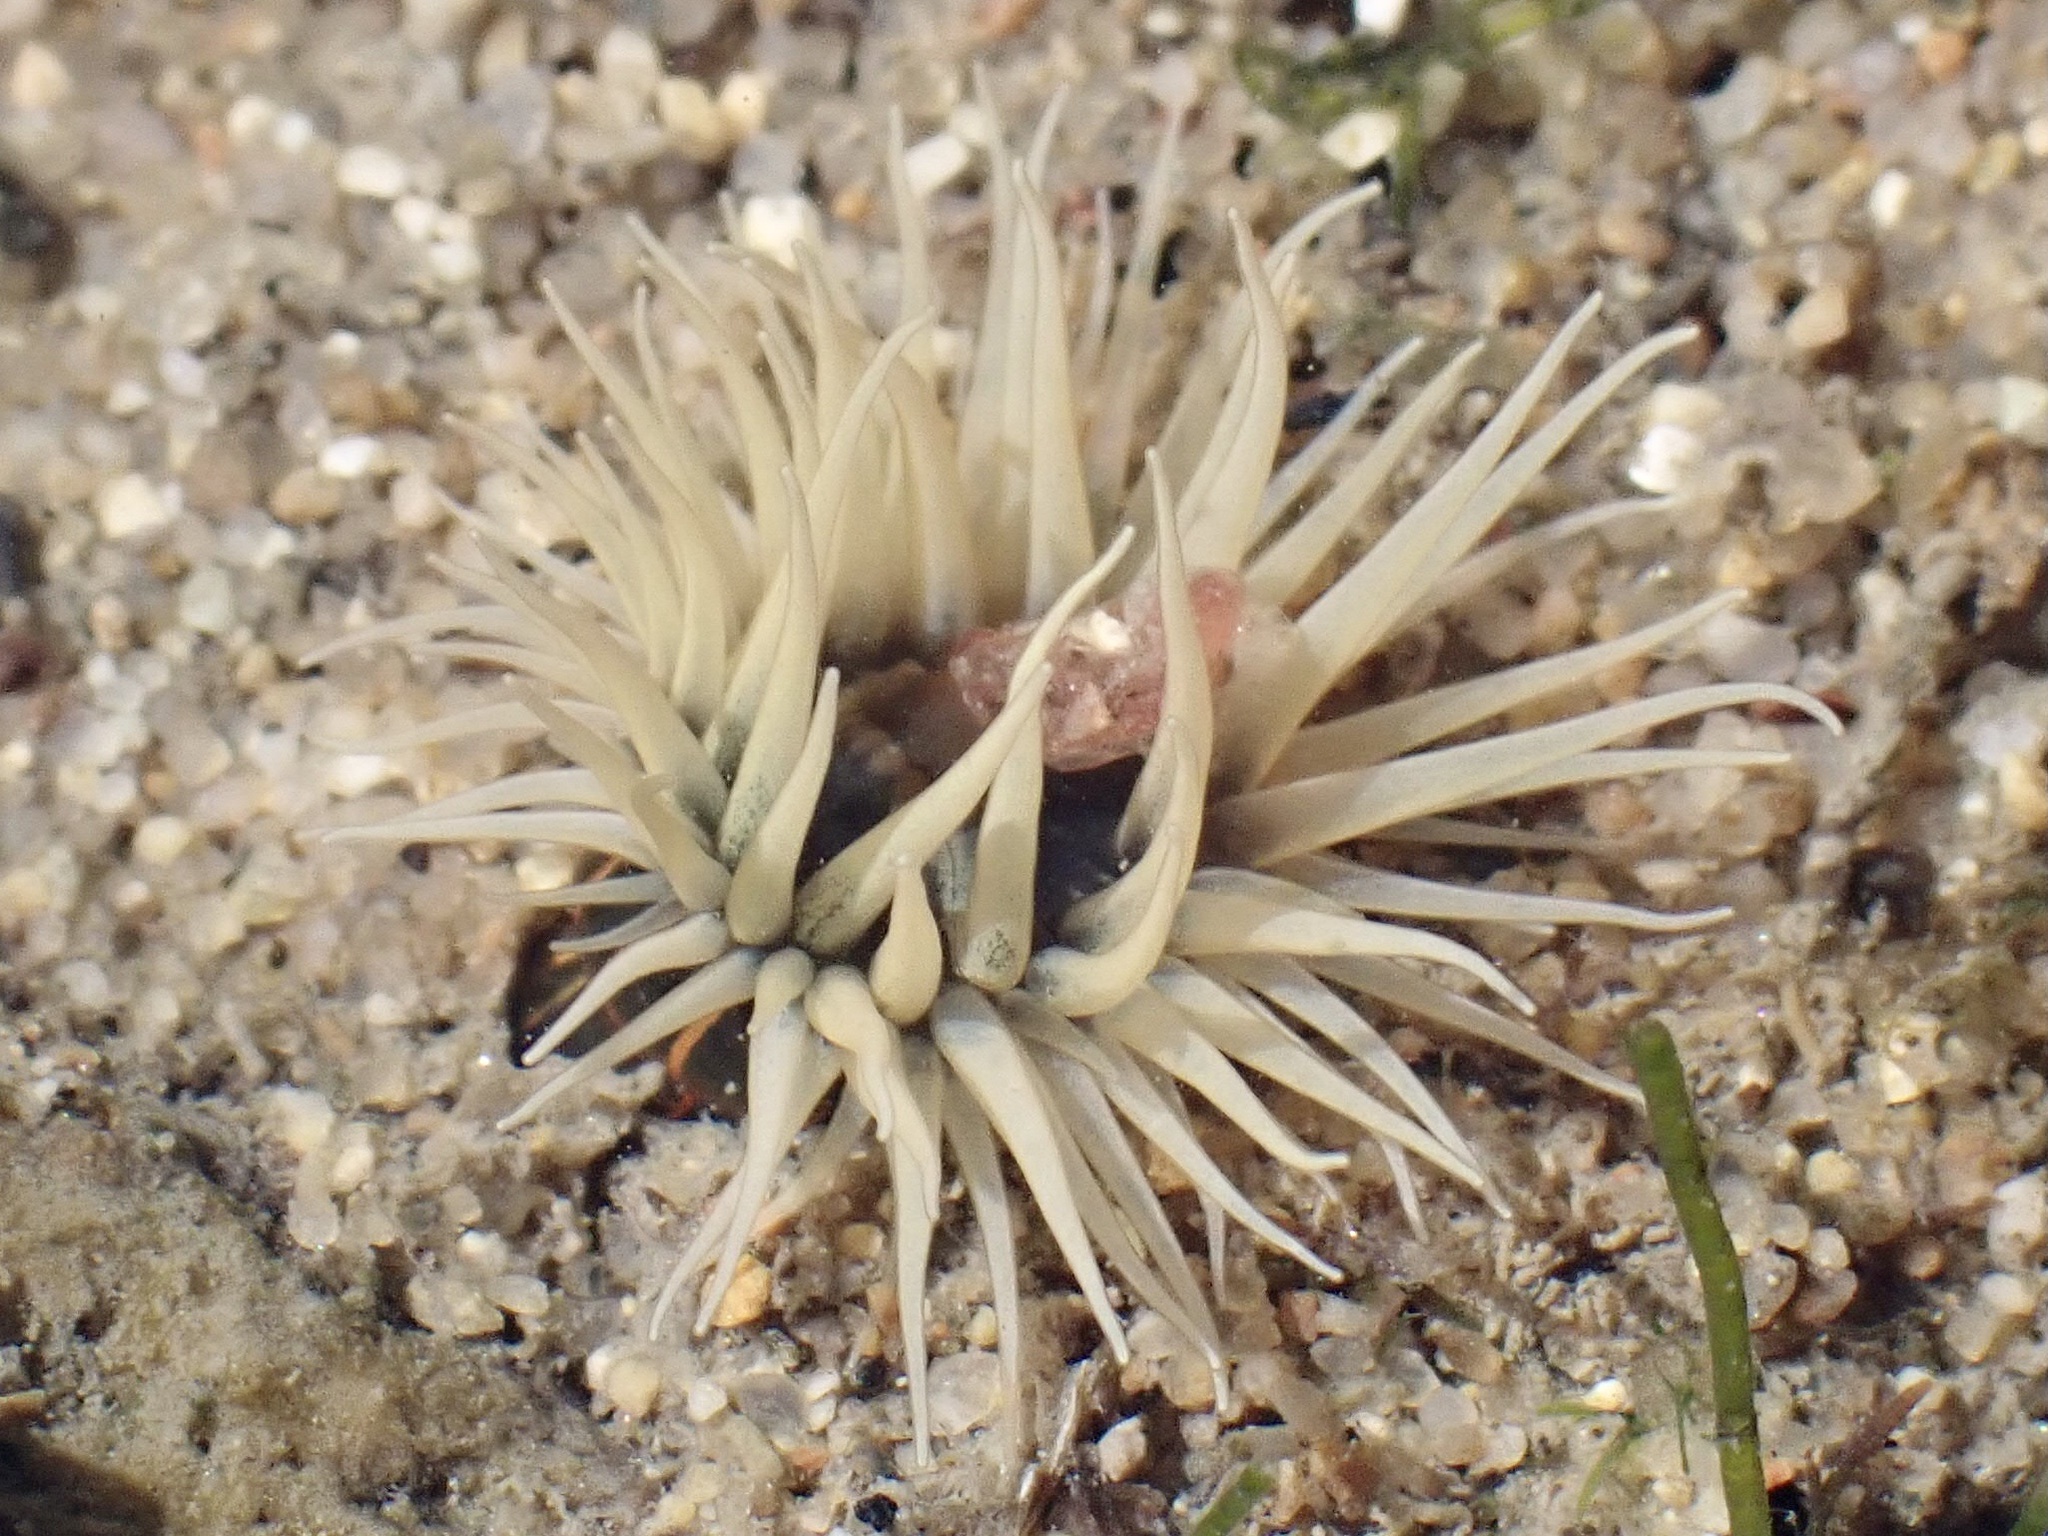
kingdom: Animalia
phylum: Cnidaria
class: Anthozoa
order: Actiniaria
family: Diadumenidae
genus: Diadumene
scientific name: Diadumene lineata
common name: Orange-striped anemone
